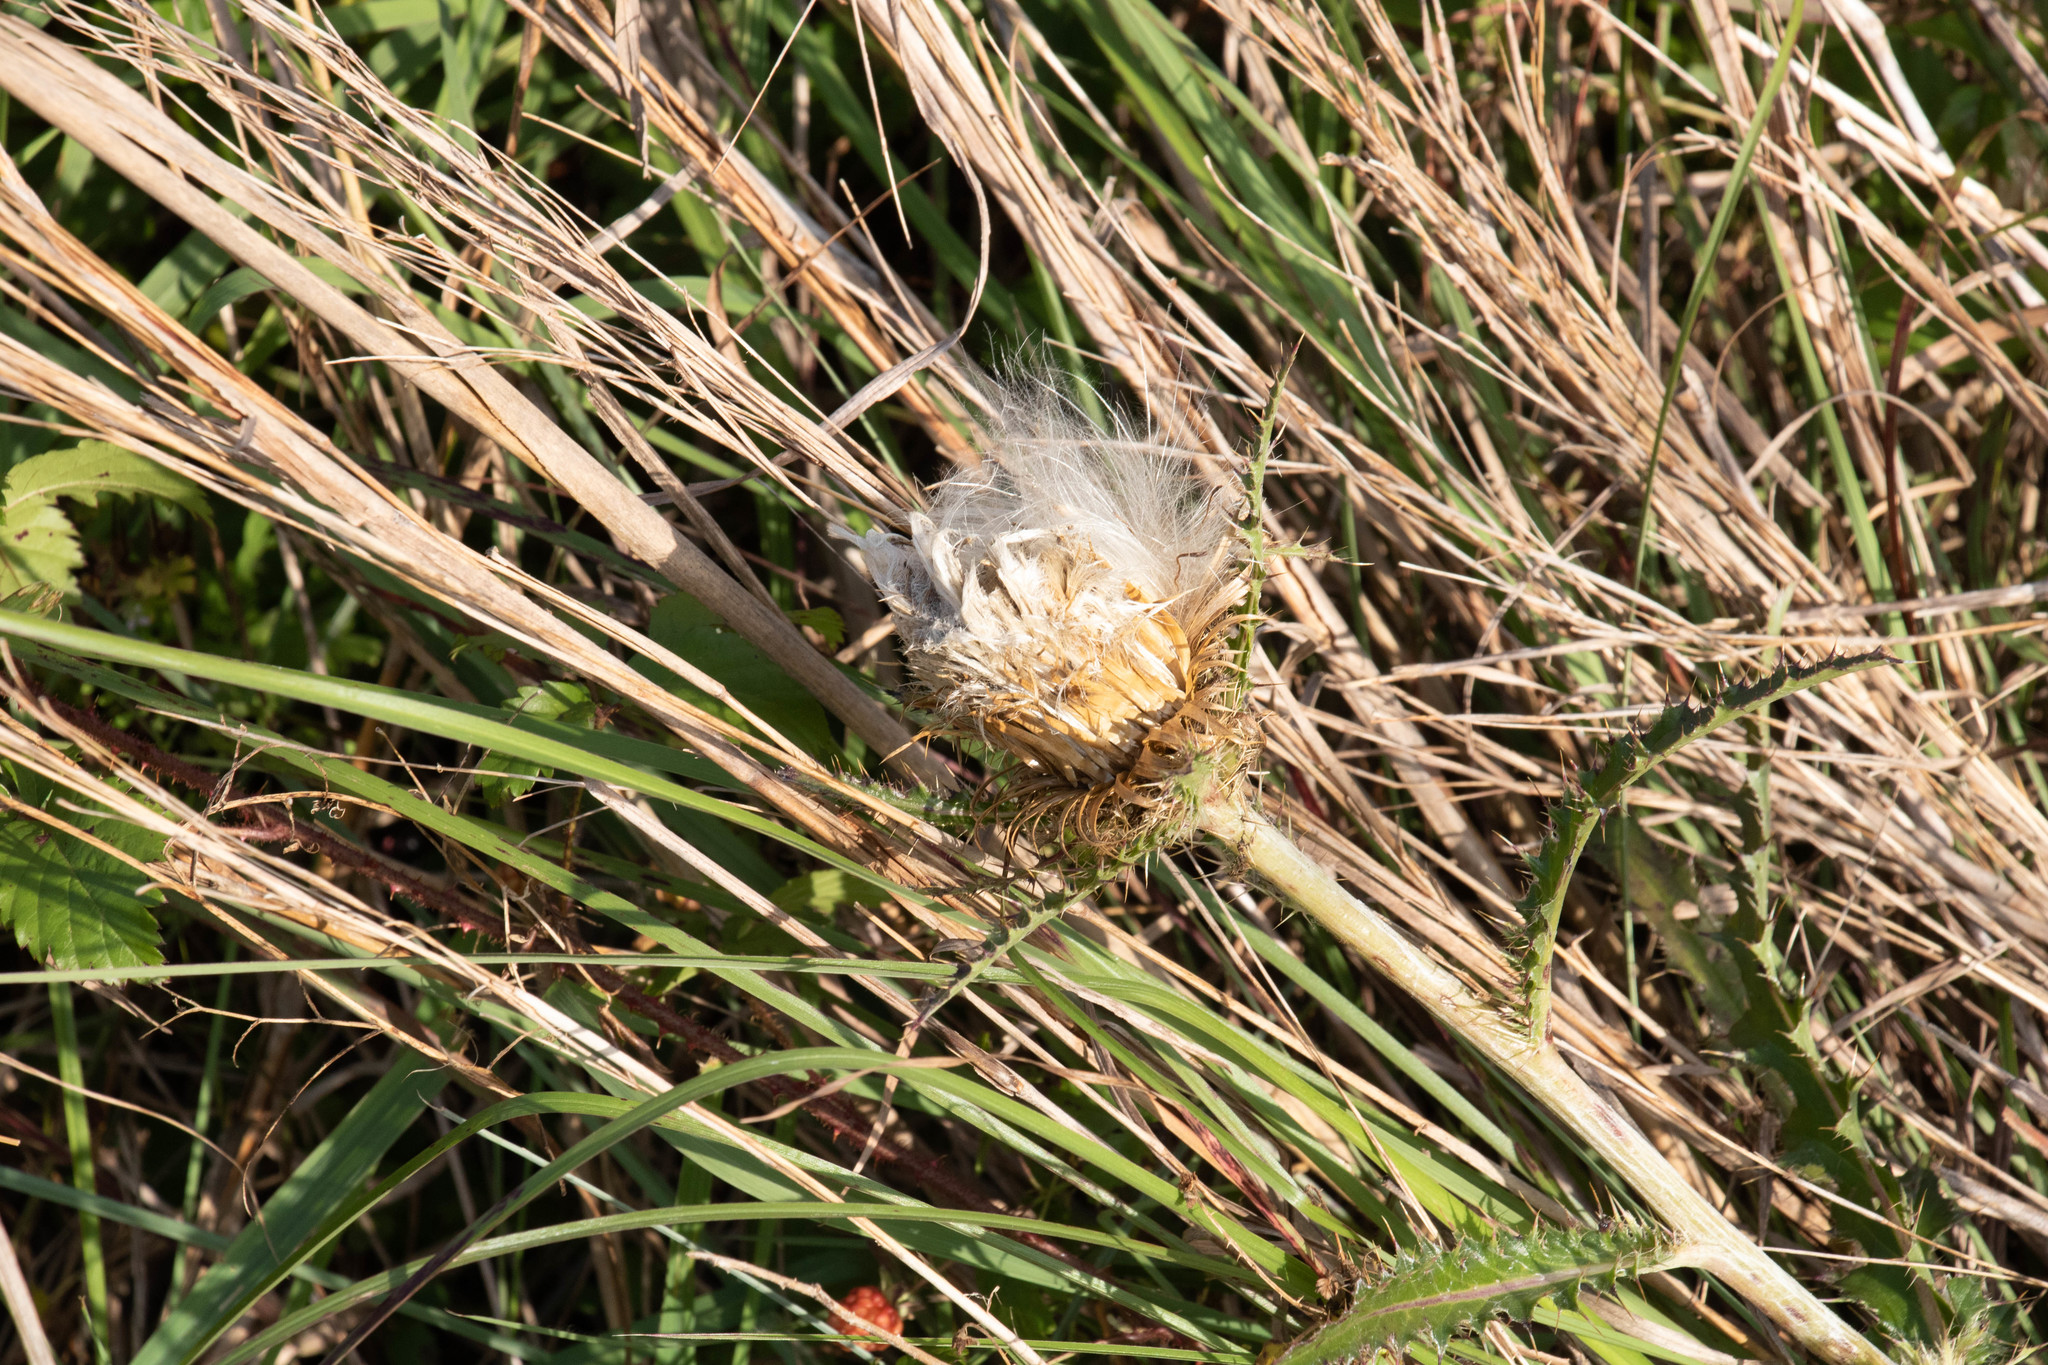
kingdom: Plantae
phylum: Tracheophyta
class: Magnoliopsida
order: Asterales
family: Asteraceae
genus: Cirsium
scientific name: Cirsium horridulum
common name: Bristly thistle
